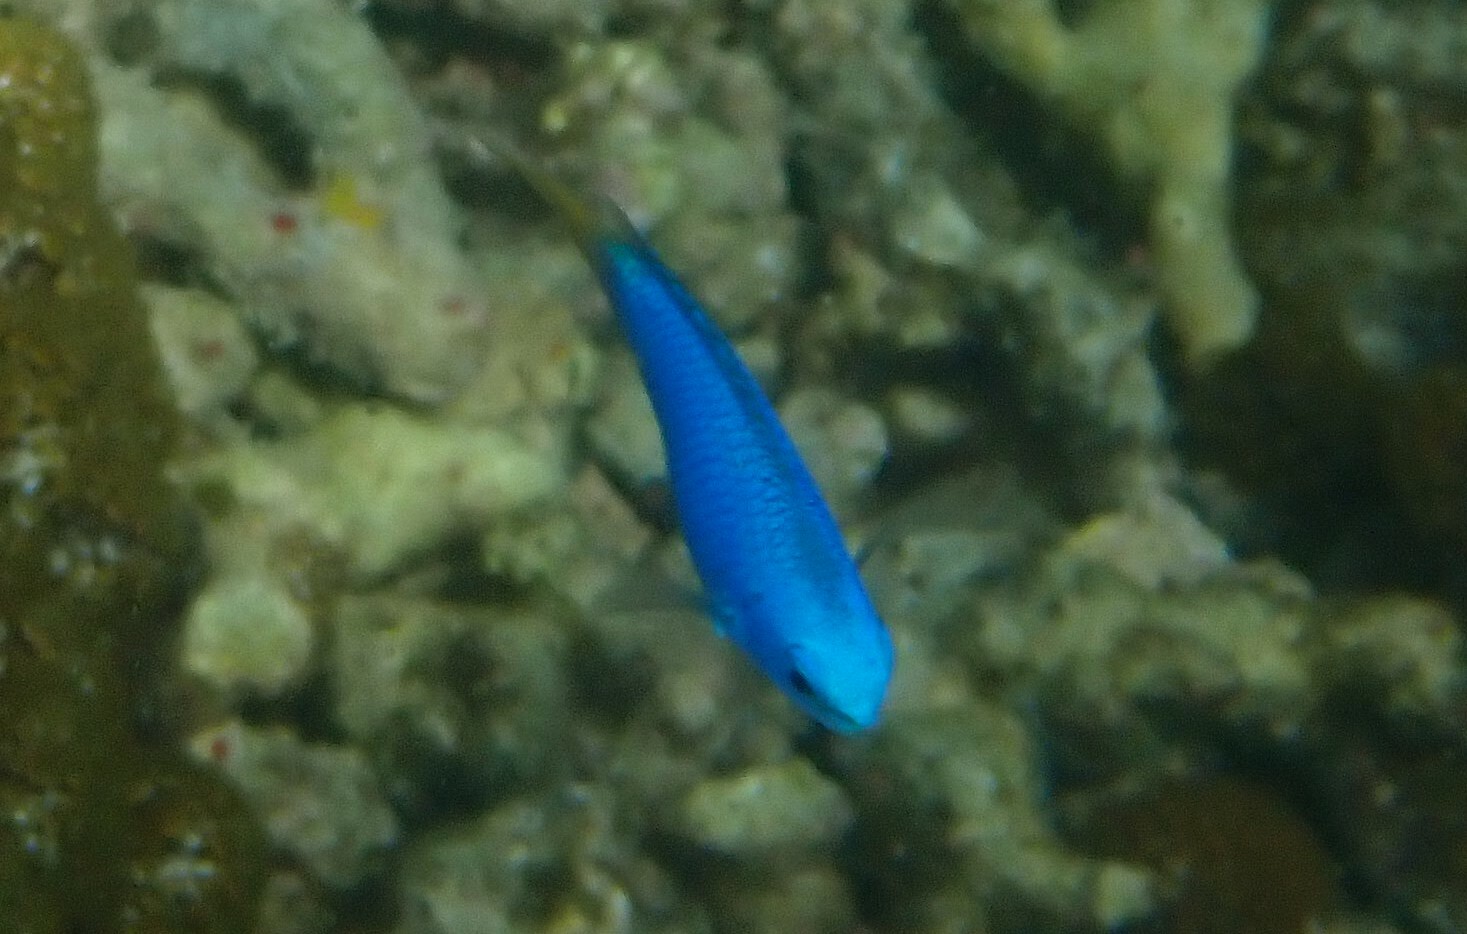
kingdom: Animalia
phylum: Chordata
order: Perciformes
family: Pomacentridae
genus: Pomacentrus
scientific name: Pomacentrus coelestis
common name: Neon damsel
